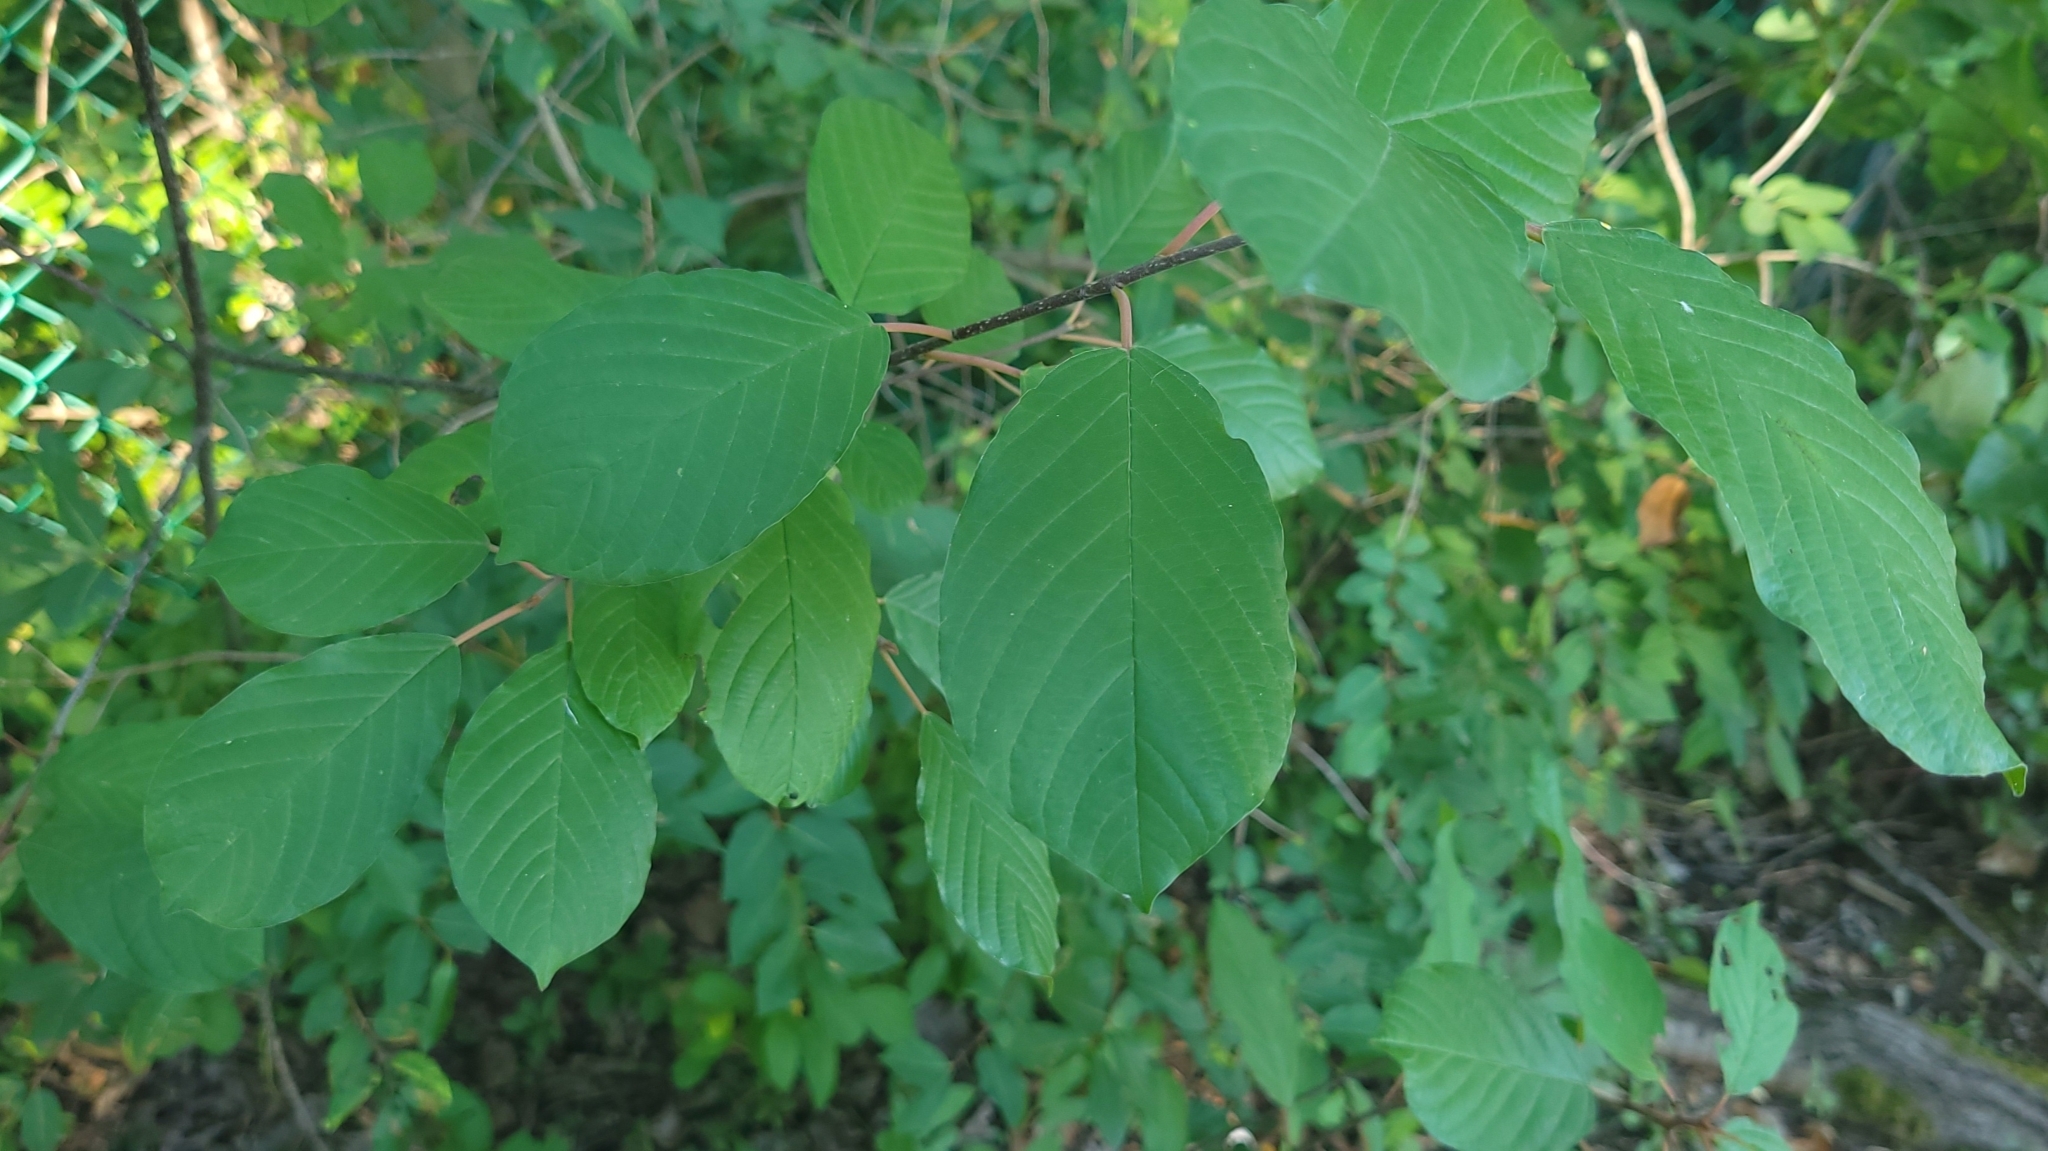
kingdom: Plantae
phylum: Tracheophyta
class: Magnoliopsida
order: Rosales
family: Rhamnaceae
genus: Frangula
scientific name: Frangula alnus
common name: Alder buckthorn
